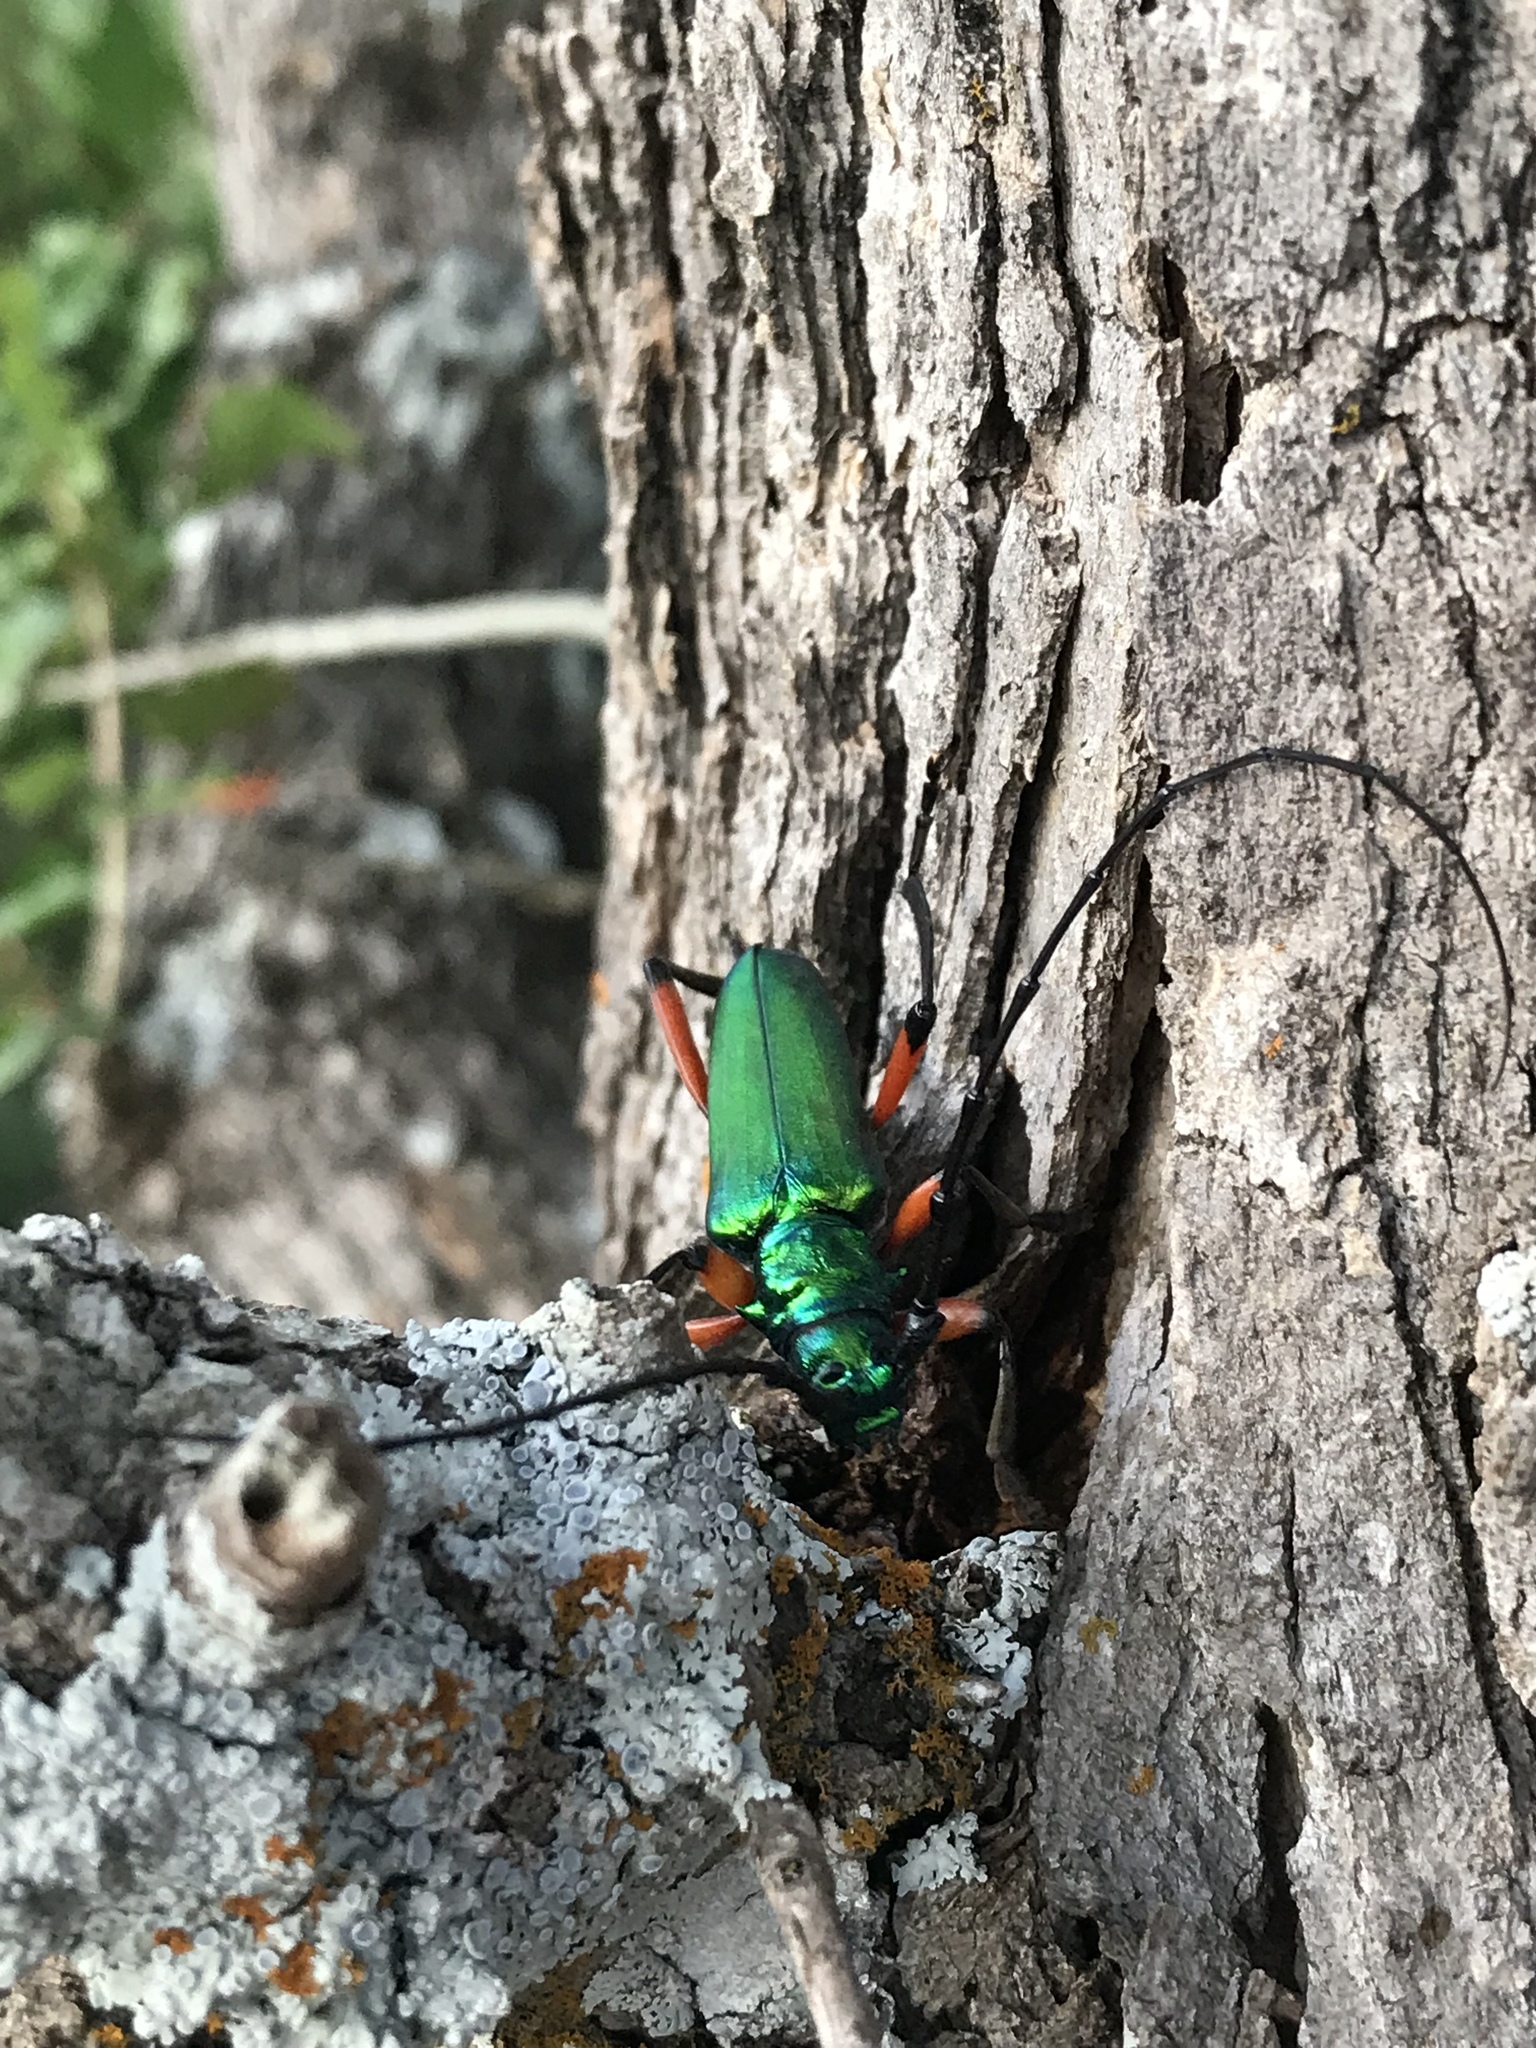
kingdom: Animalia
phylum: Arthropoda
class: Insecta
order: Coleoptera
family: Cerambycidae
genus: Plinthocoelium
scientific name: Plinthocoelium suaveolens
